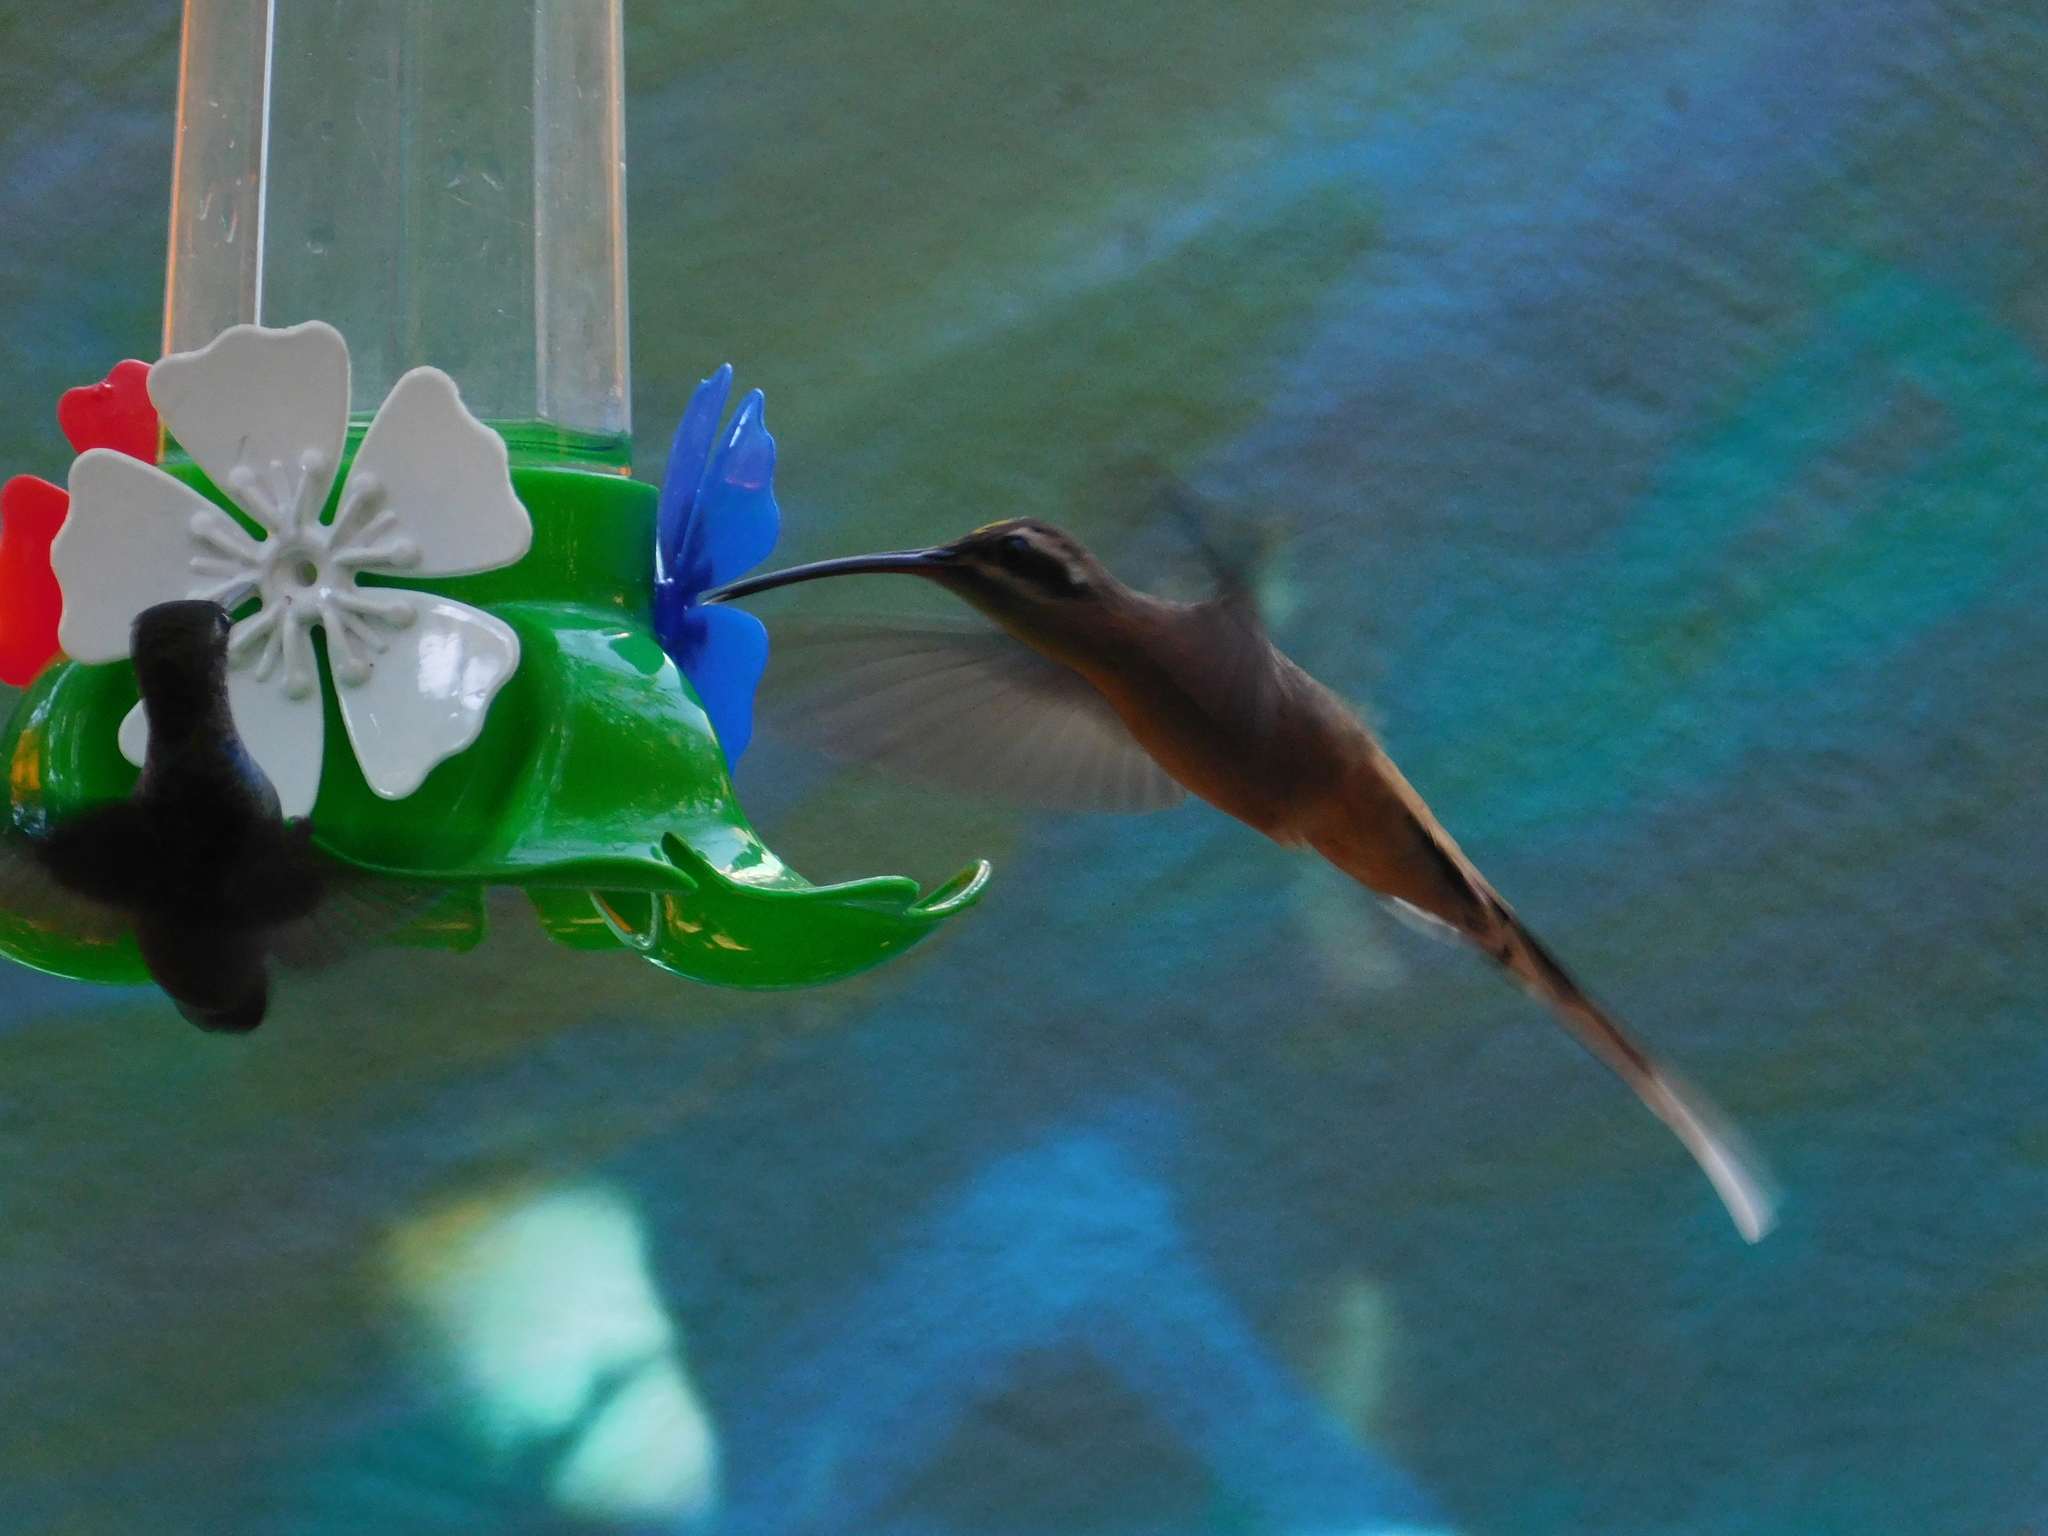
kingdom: Animalia
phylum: Chordata
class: Aves
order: Apodiformes
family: Trochilidae
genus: Phaethornis
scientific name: Phaethornis pretrei
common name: Planalto hermit
